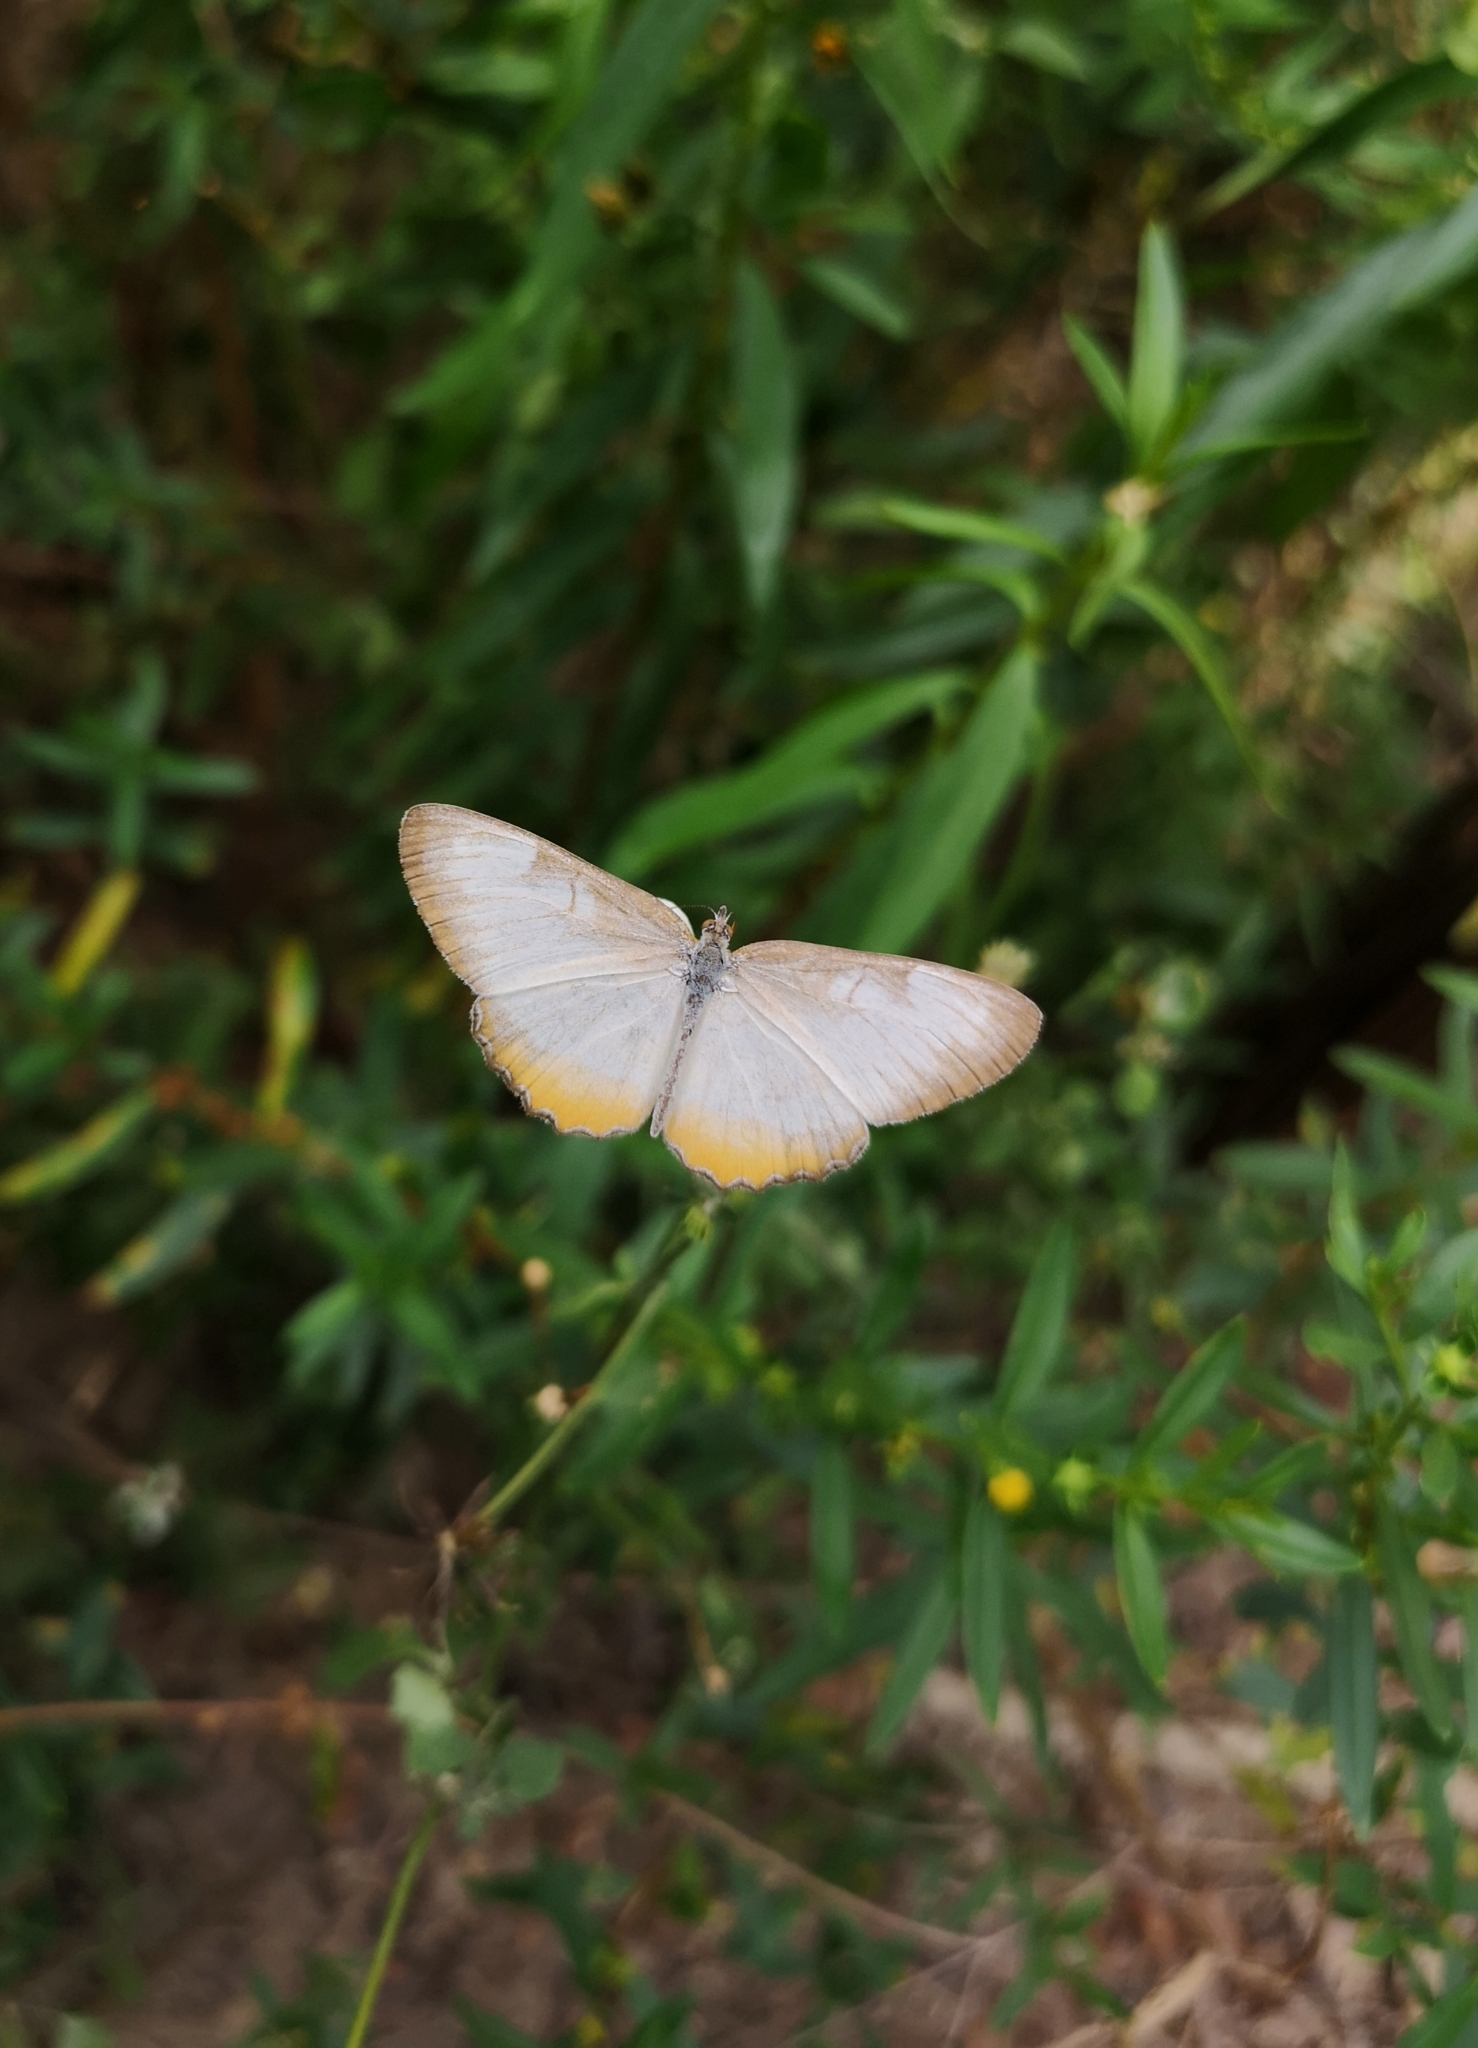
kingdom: Animalia
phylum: Arthropoda
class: Insecta
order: Lepidoptera
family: Nymphalidae
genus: Mestra
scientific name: Mestra amymone
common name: Common mestra
